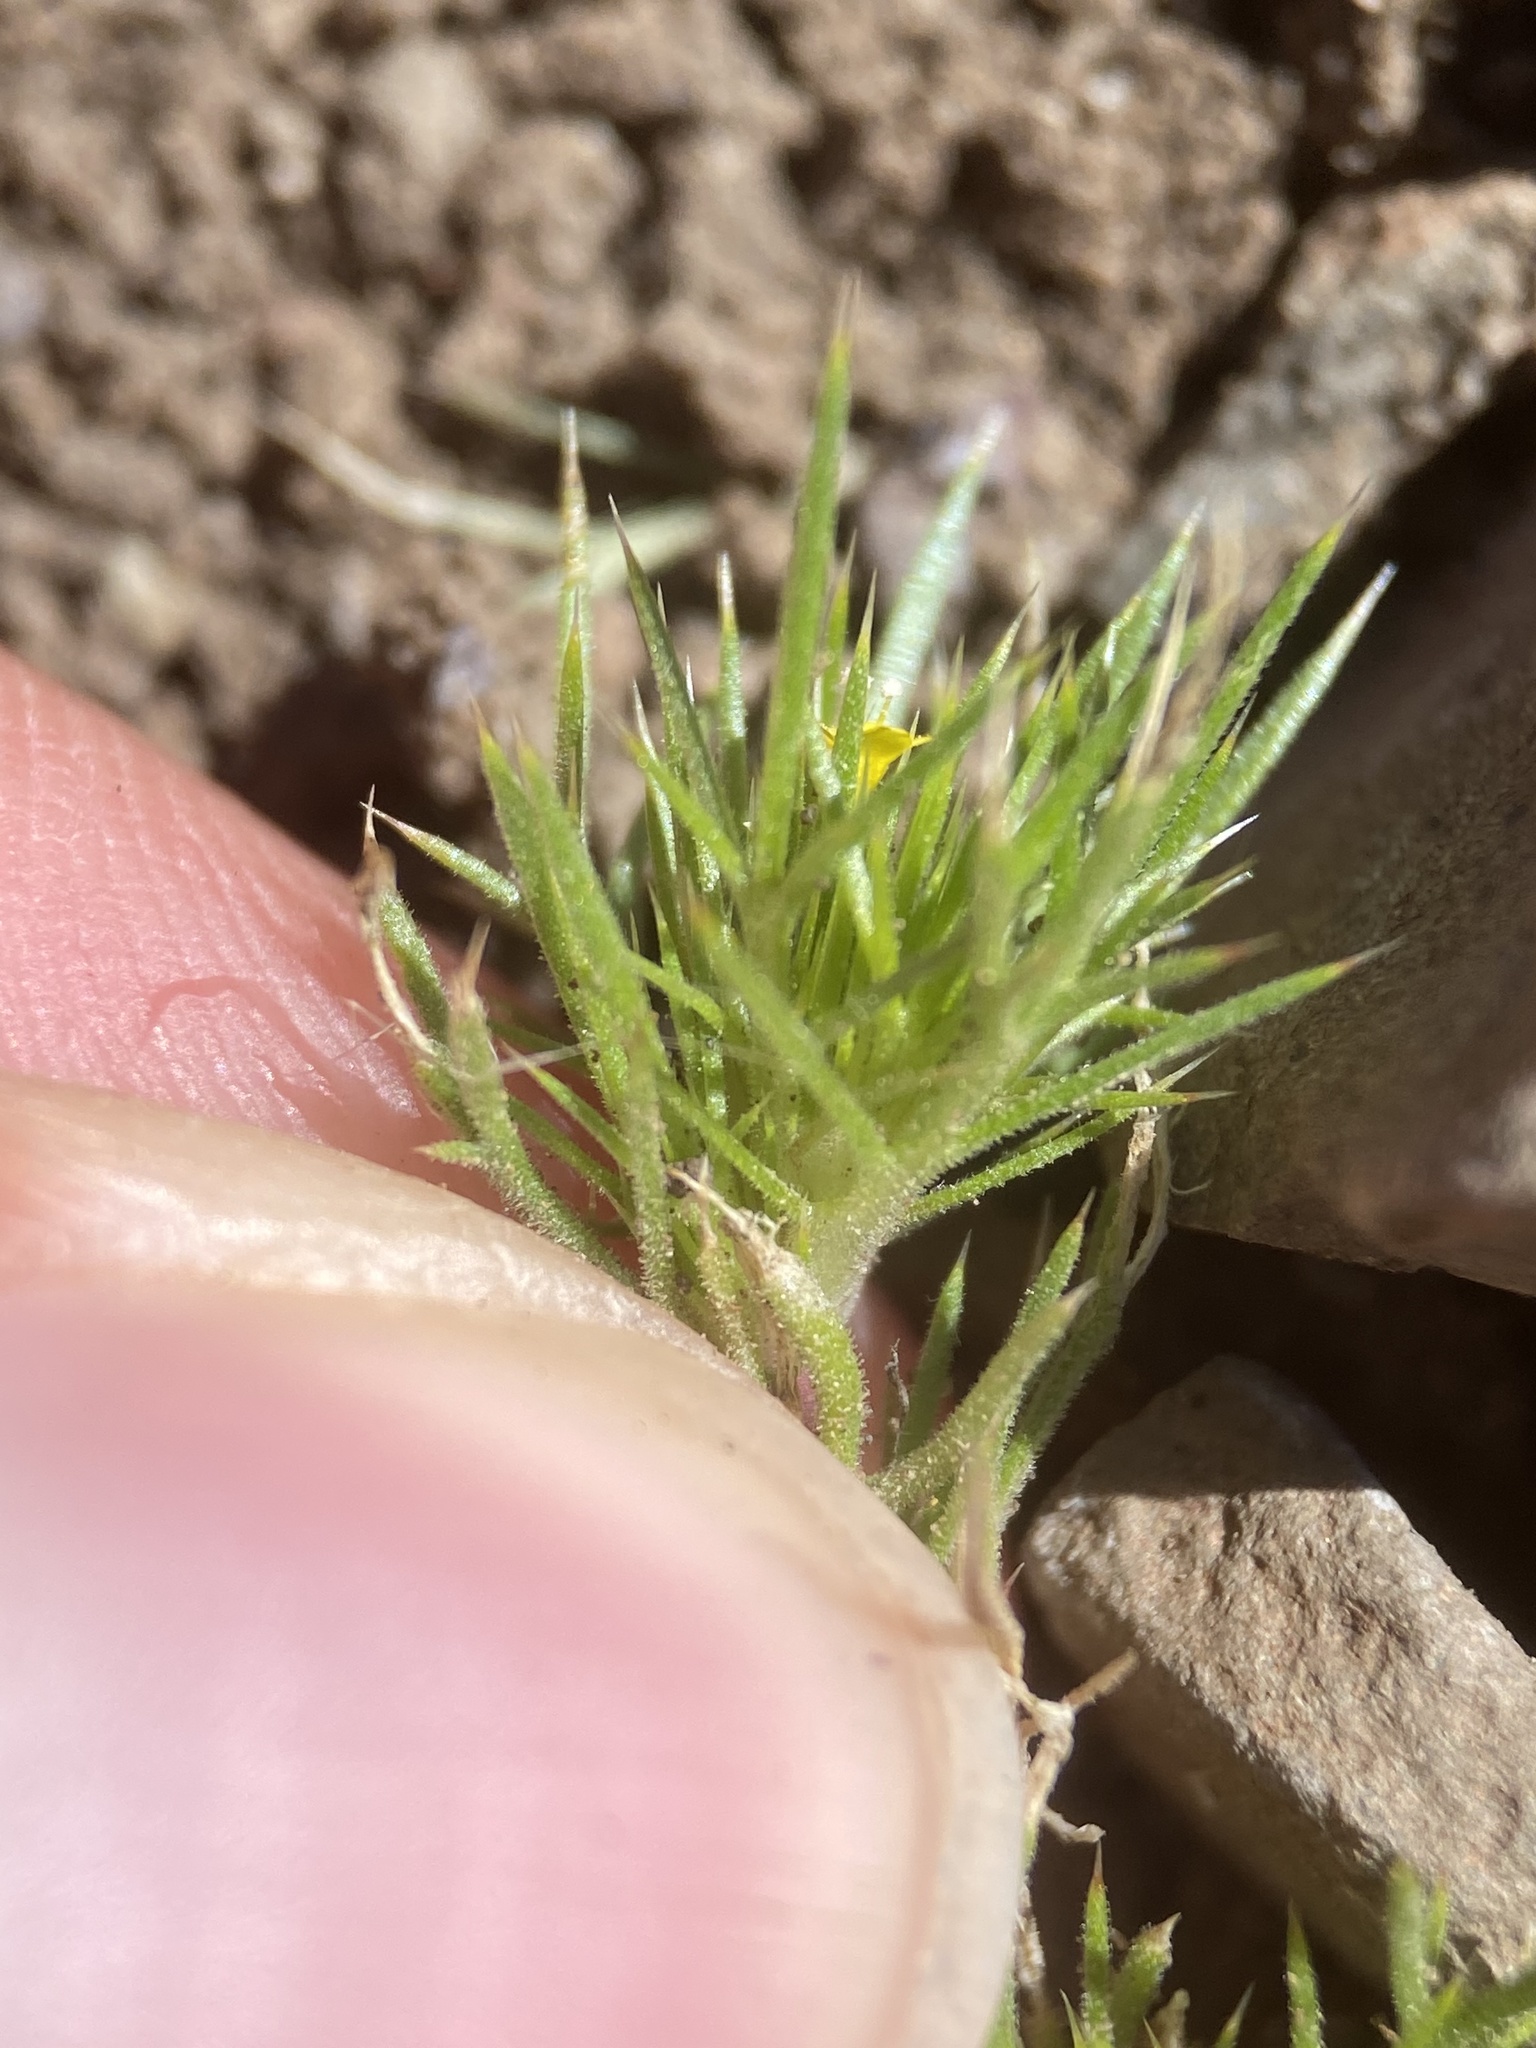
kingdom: Plantae
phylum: Tracheophyta
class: Magnoliopsida
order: Ericales
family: Polemoniaceae
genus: Navarretia
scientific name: Navarretia breweri
